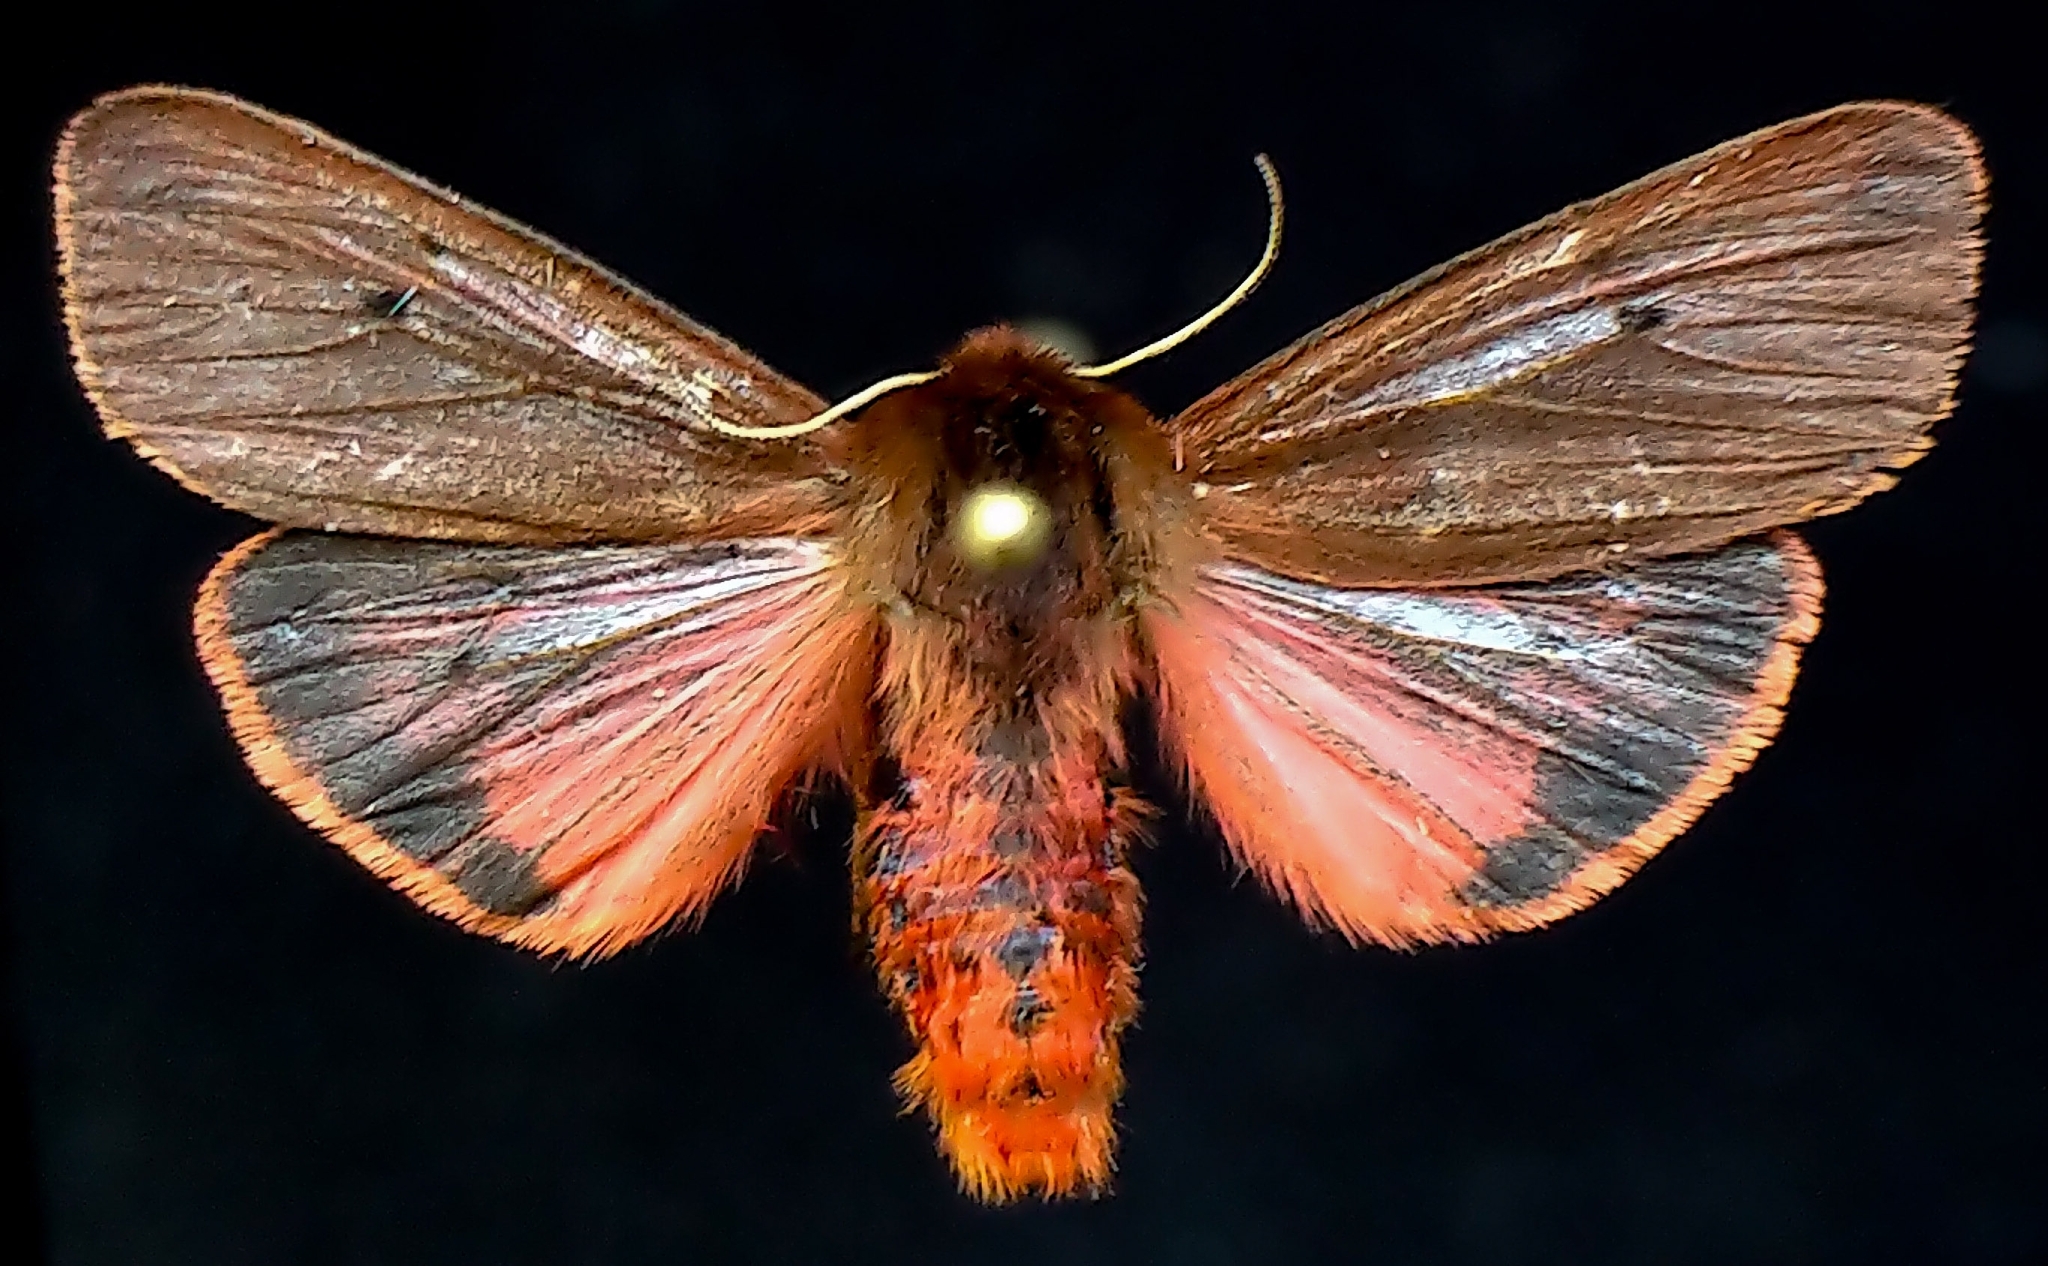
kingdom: Animalia
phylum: Arthropoda
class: Insecta
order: Lepidoptera
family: Erebidae
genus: Phragmatobia
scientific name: Phragmatobia fuliginosa
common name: Ruby tiger
